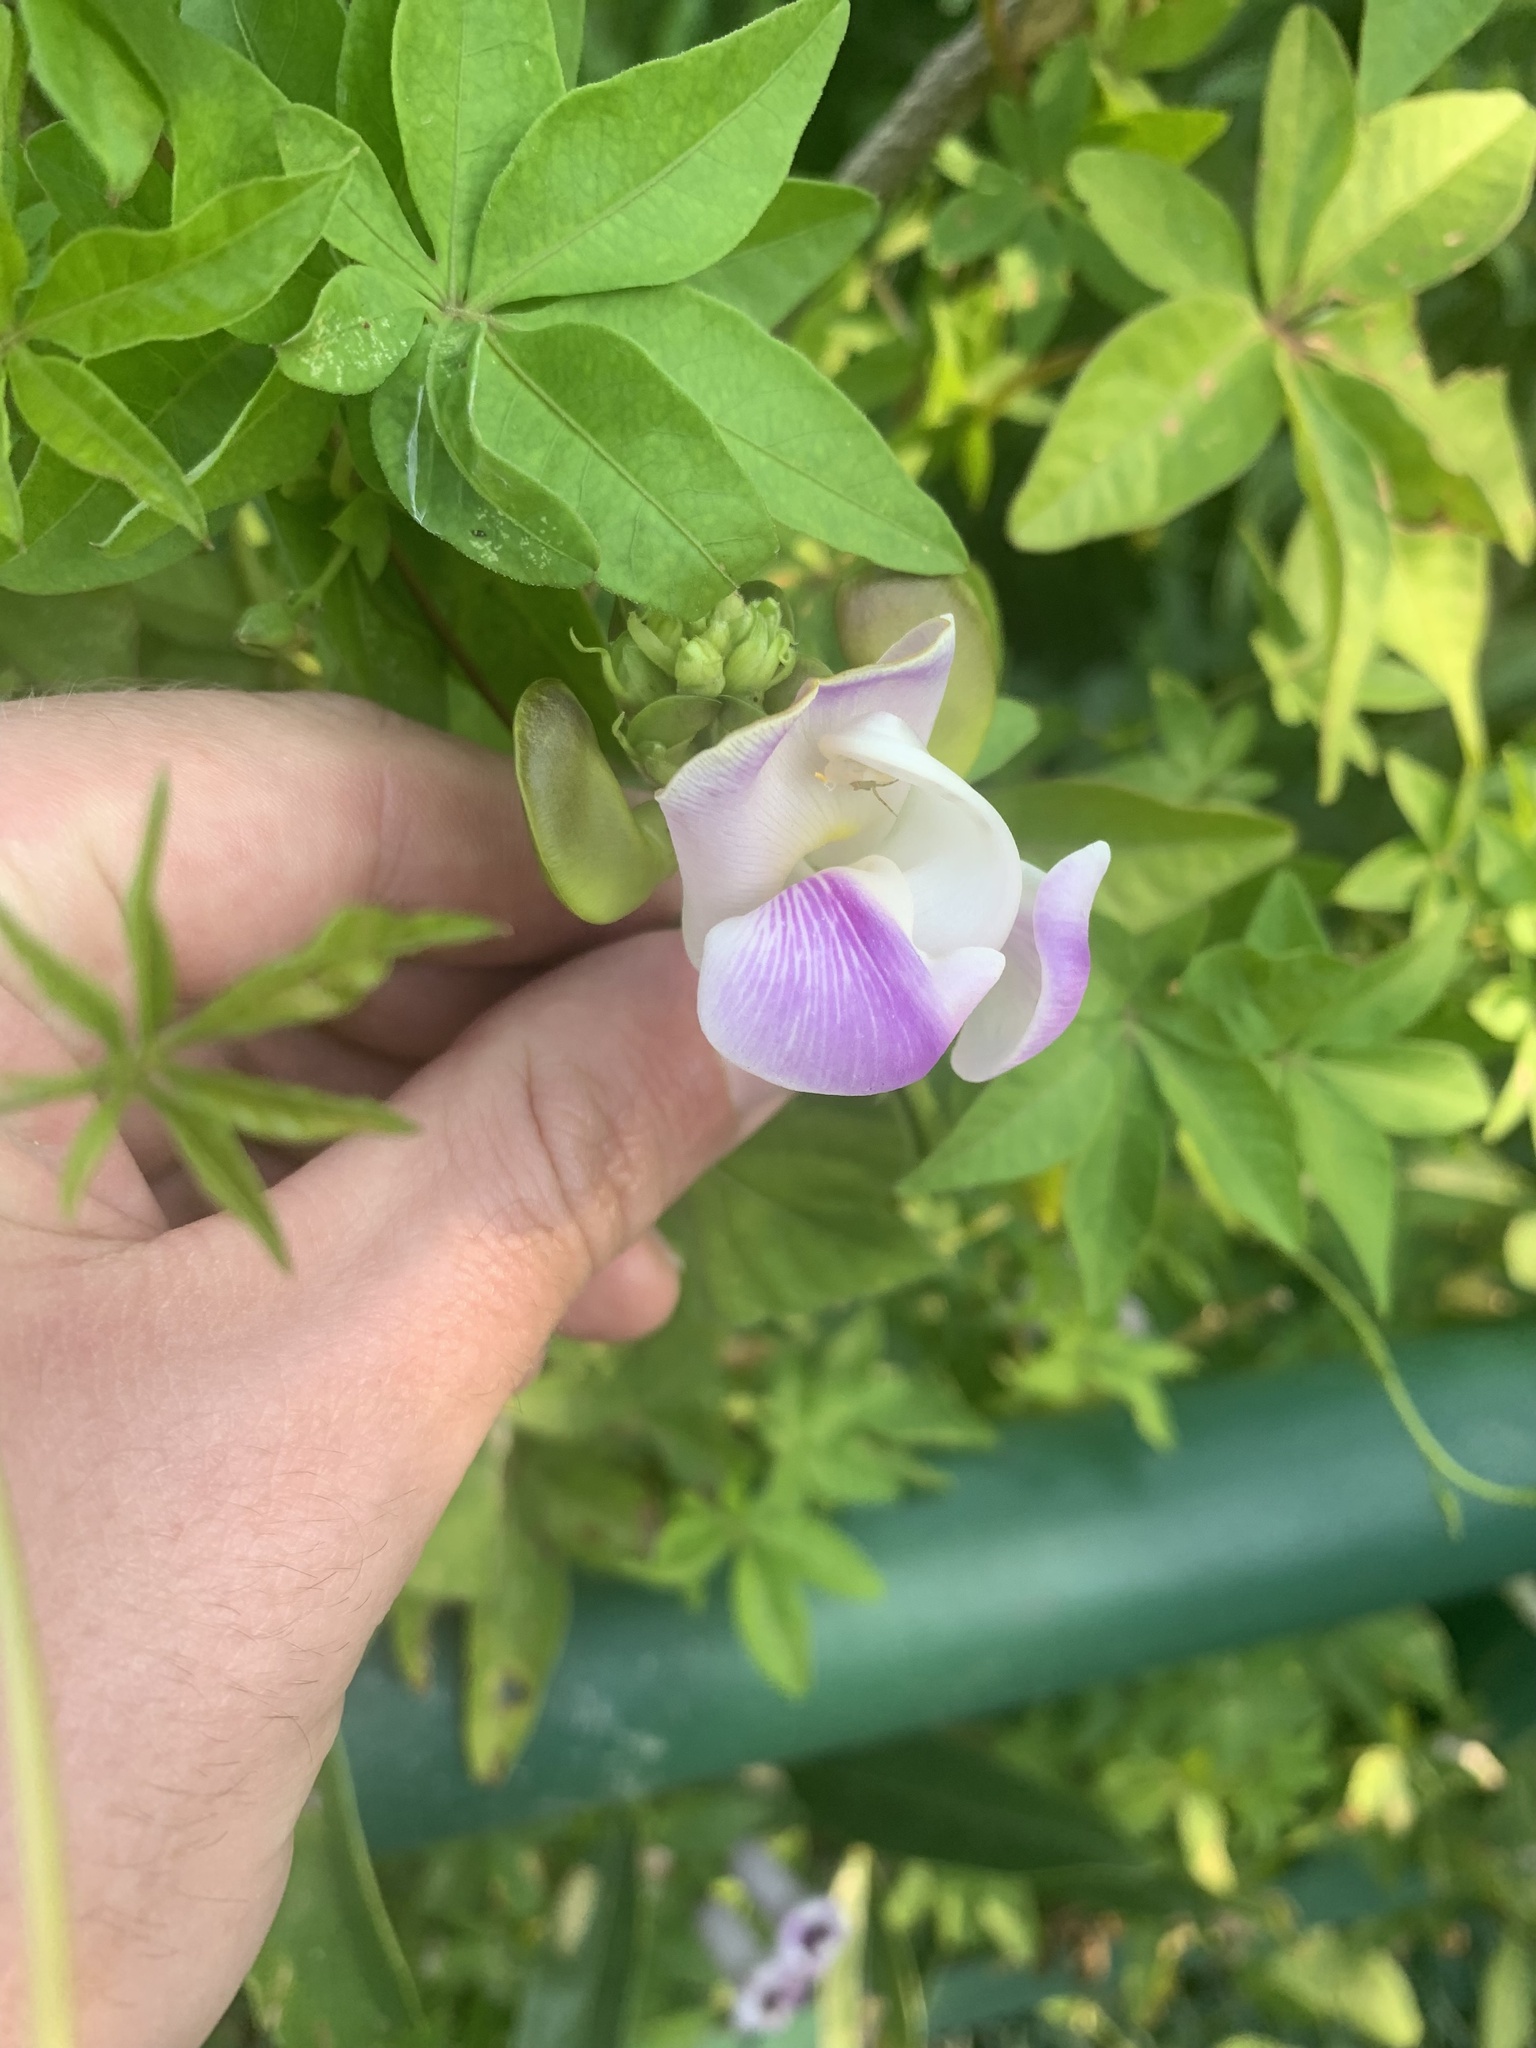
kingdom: Plantae
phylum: Tracheophyta
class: Magnoliopsida
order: Fabales
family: Fabaceae
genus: Leptospron
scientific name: Leptospron adenanthum
